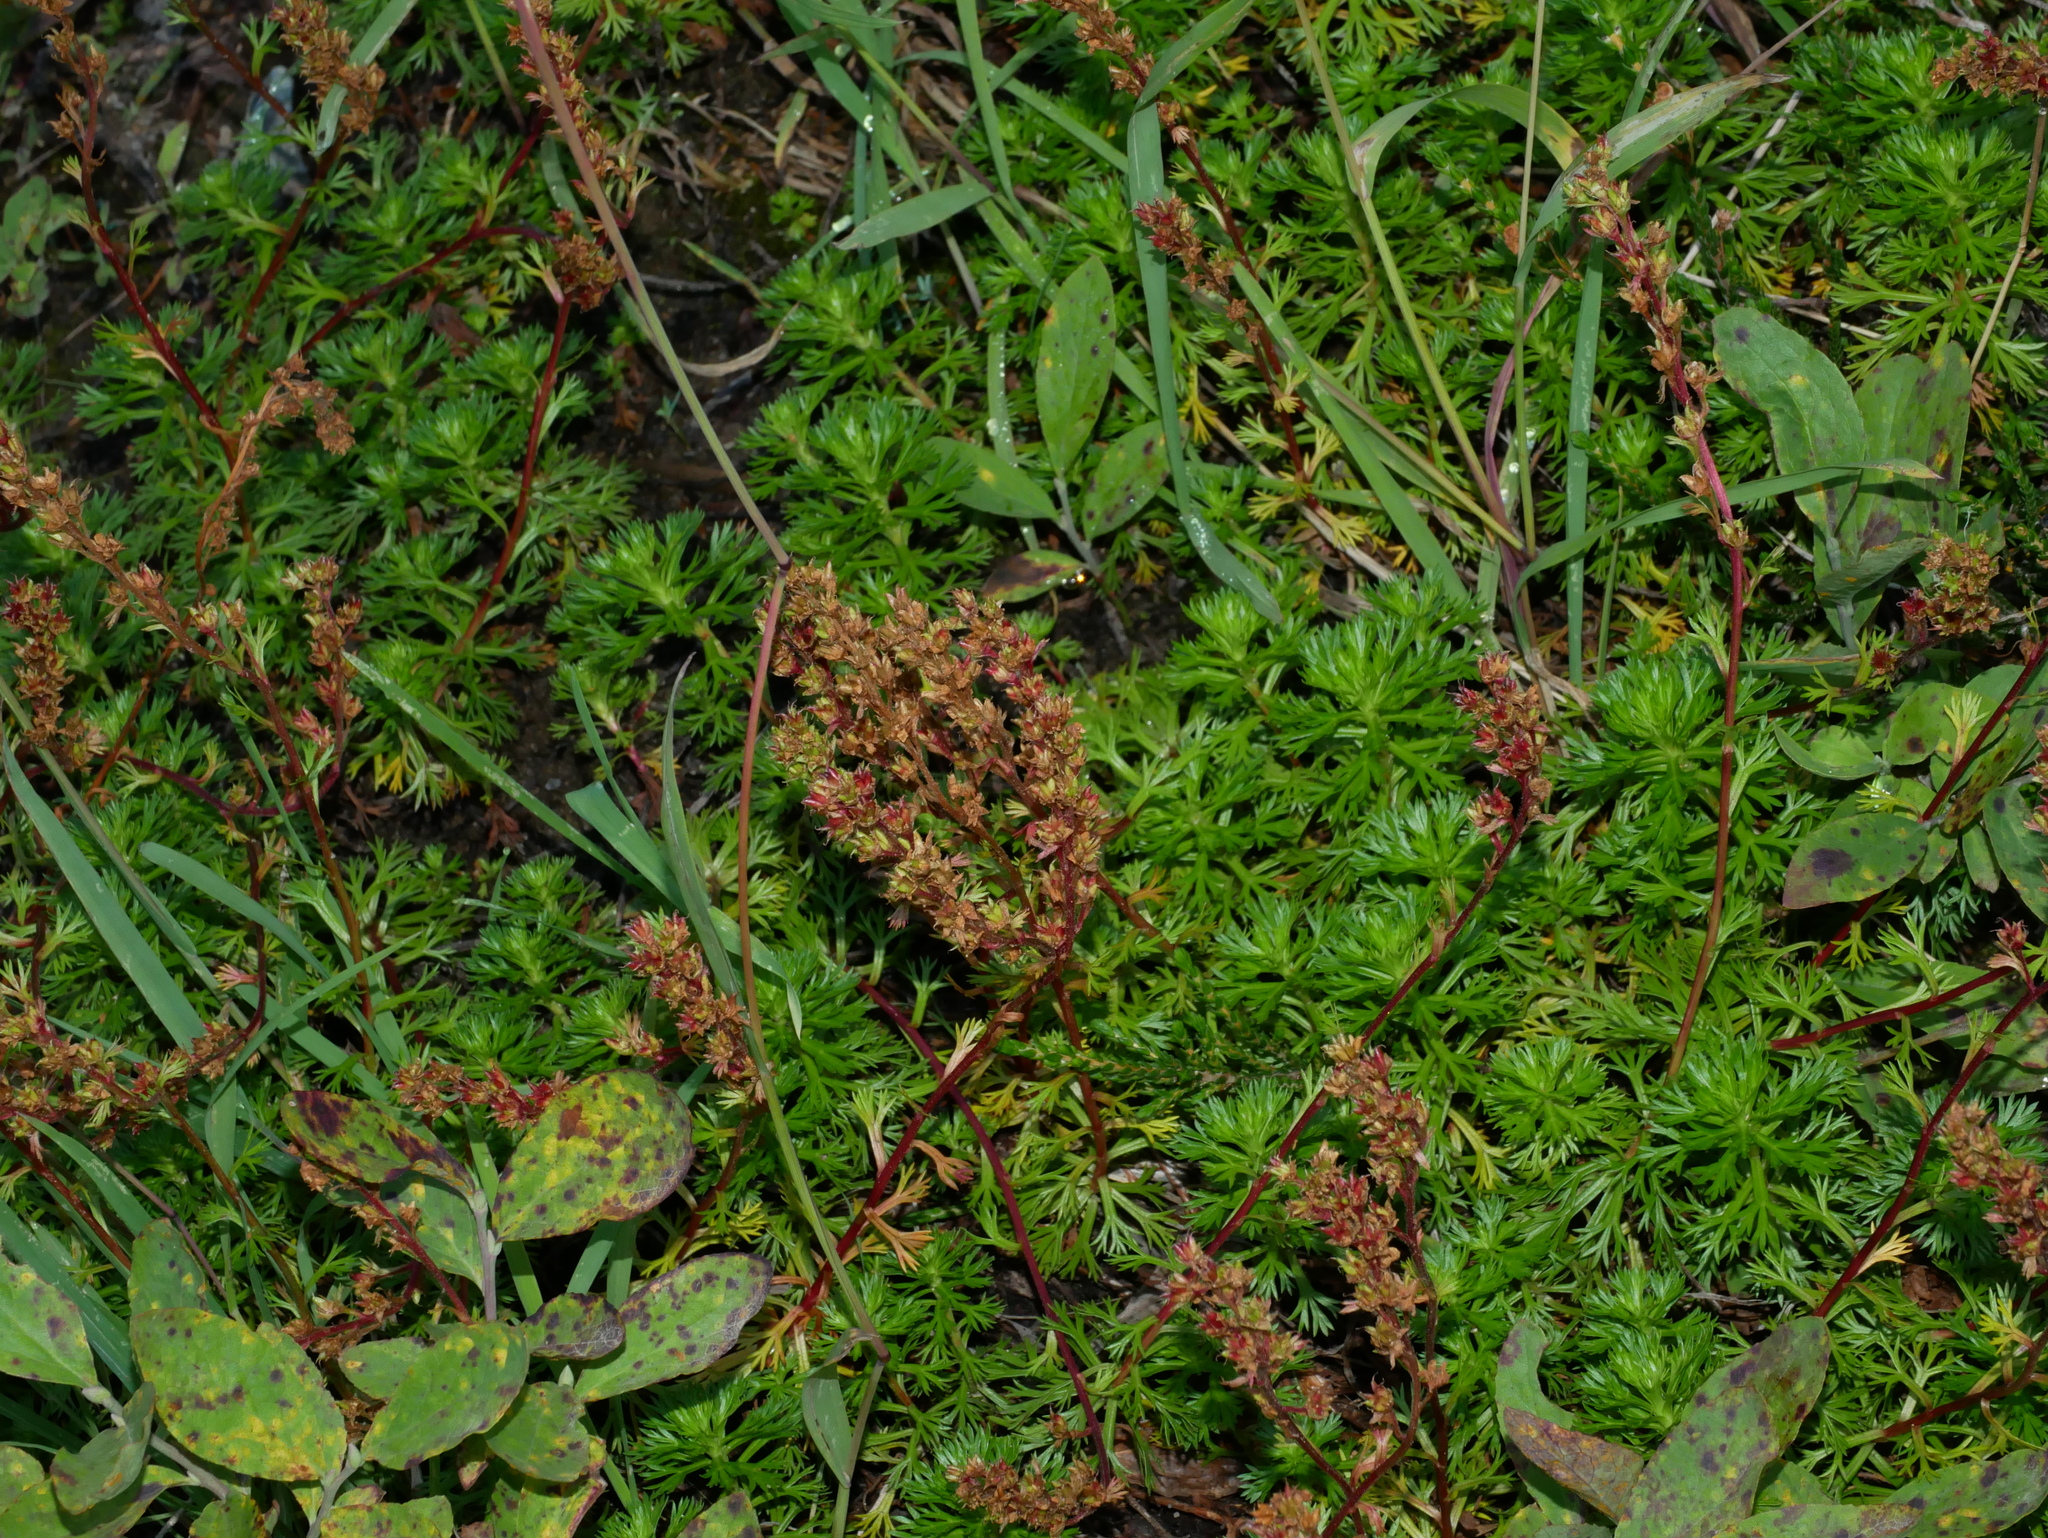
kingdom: Plantae
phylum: Tracheophyta
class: Magnoliopsida
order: Rosales
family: Rosaceae
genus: Luetkea
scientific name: Luetkea pectinata
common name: Partridgefoot
